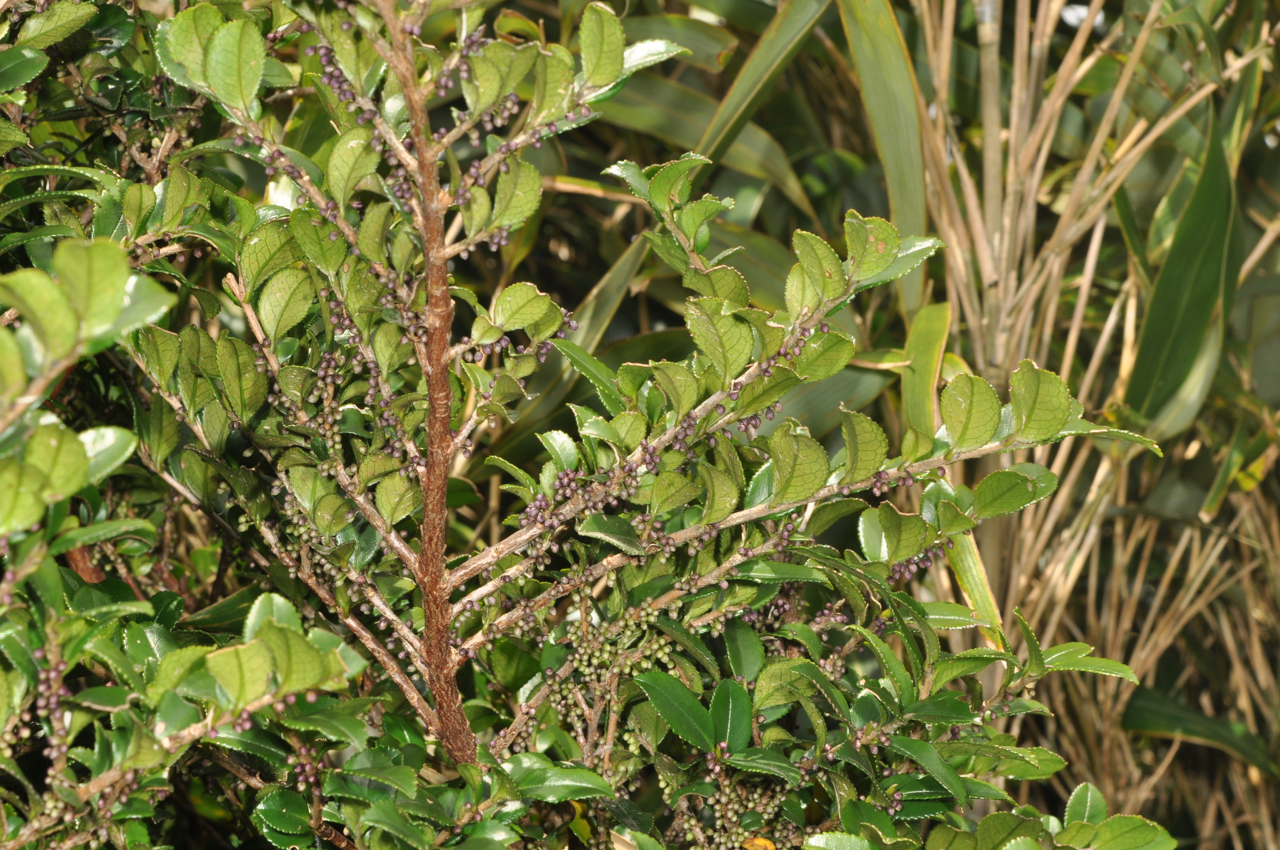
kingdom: Plantae
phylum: Tracheophyta
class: Magnoliopsida
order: Ericales
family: Pentaphylacaceae
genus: Eurya
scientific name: Eurya crenatifolia
